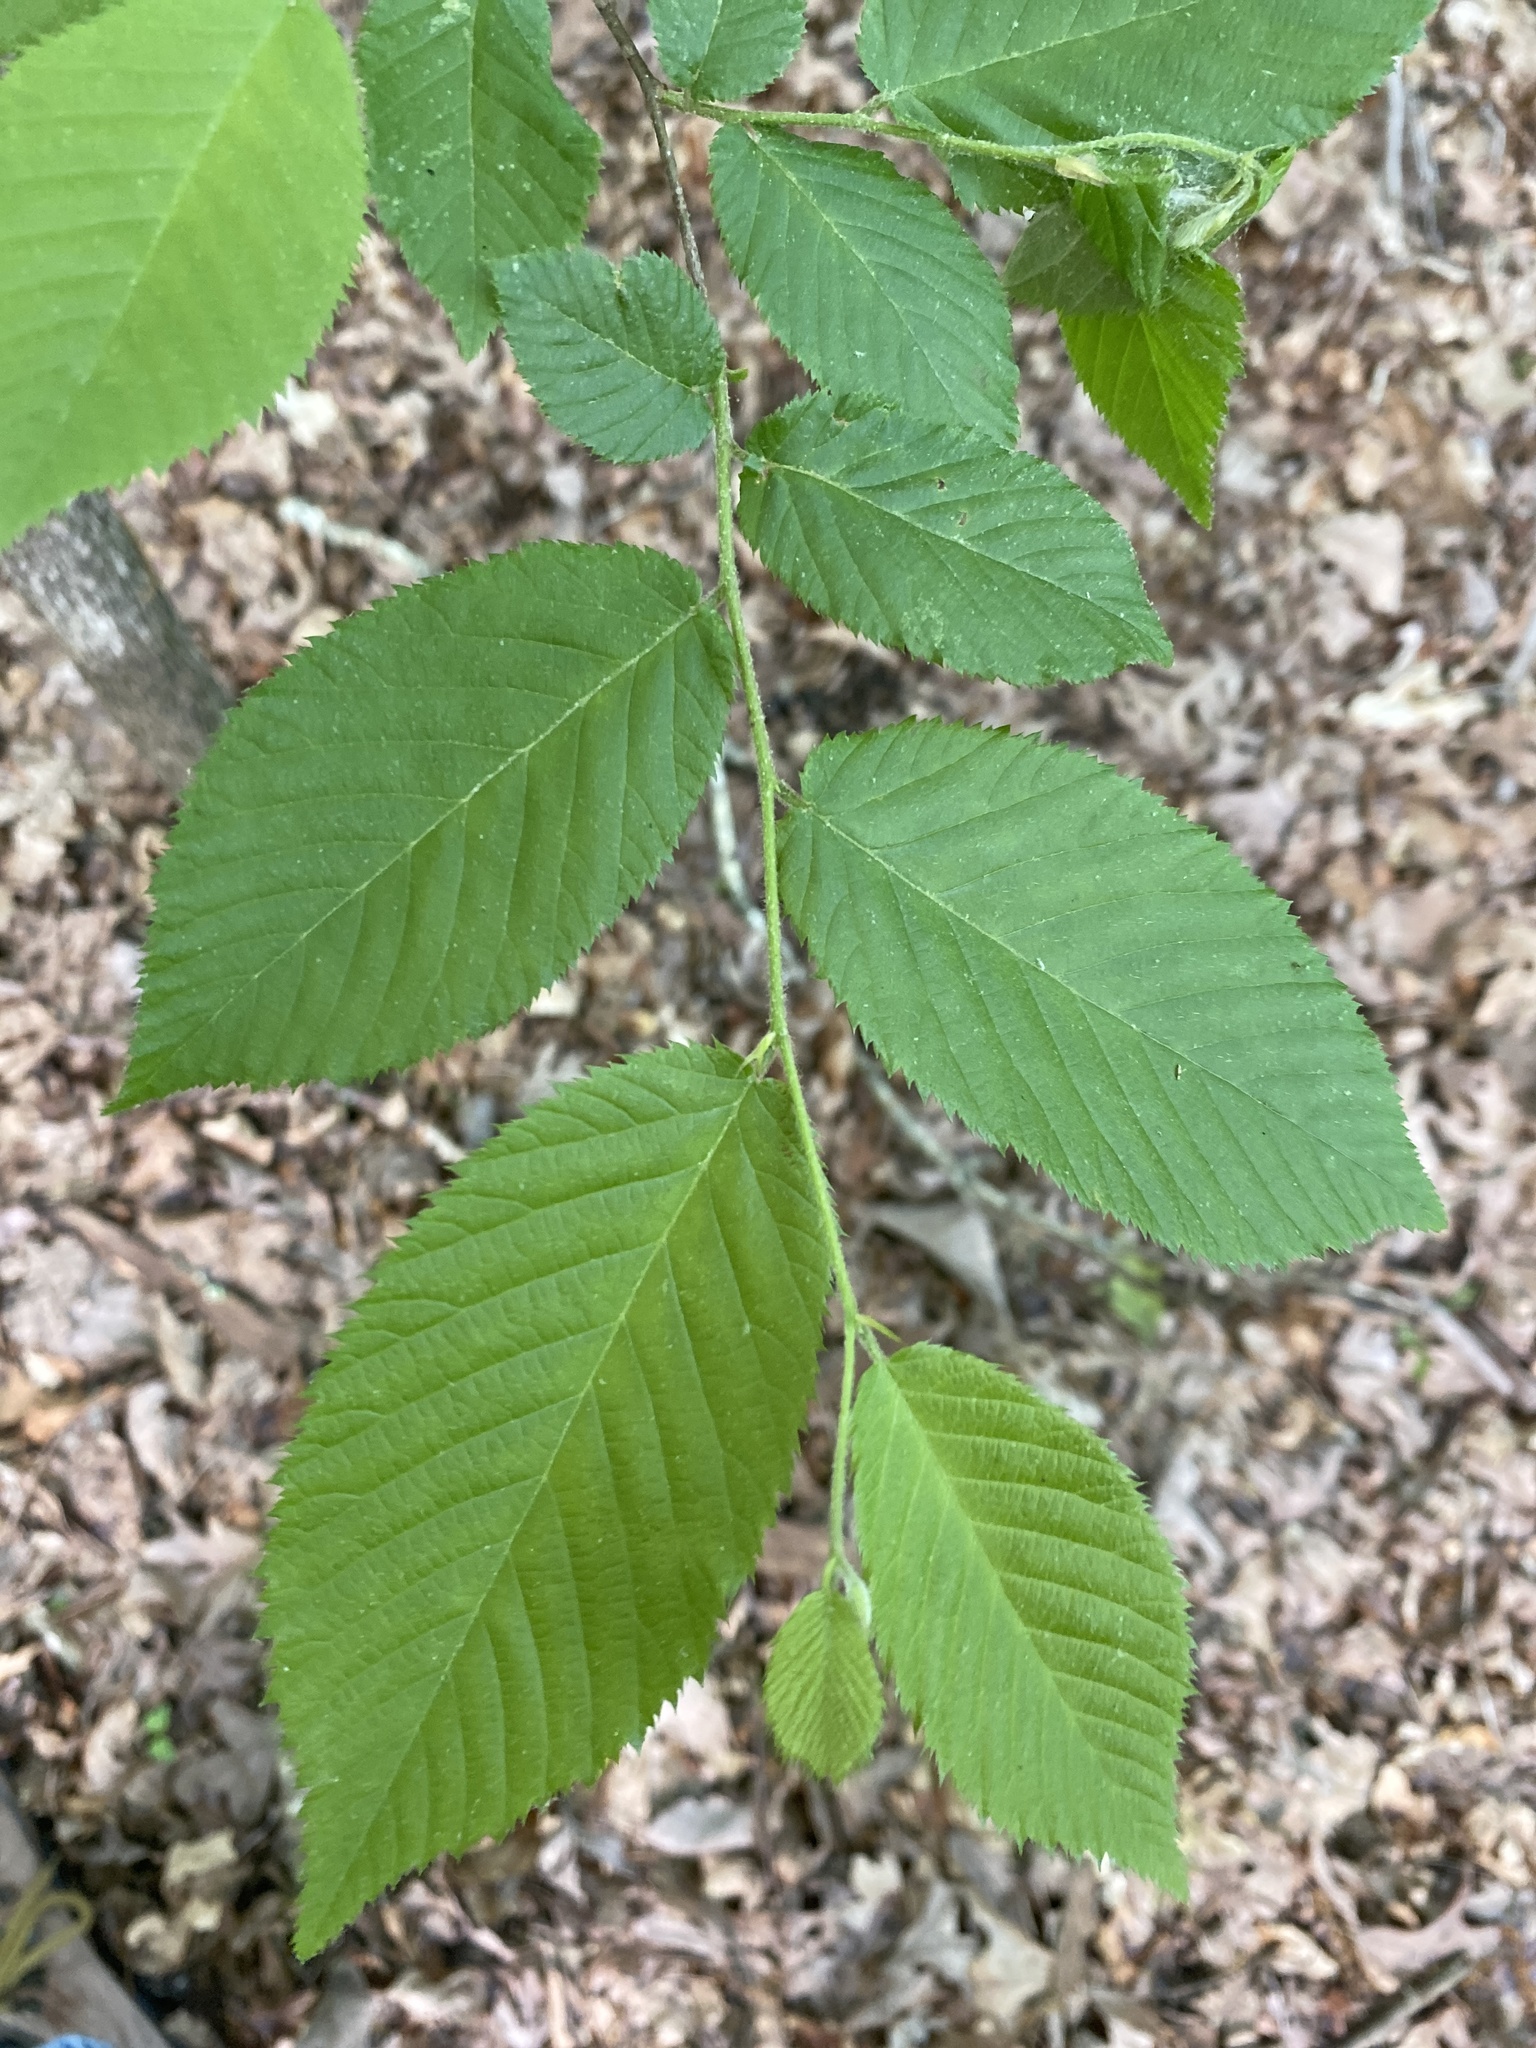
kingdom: Plantae
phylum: Tracheophyta
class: Magnoliopsida
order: Fagales
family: Betulaceae
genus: Ostrya
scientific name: Ostrya virginiana
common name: Ironwood
